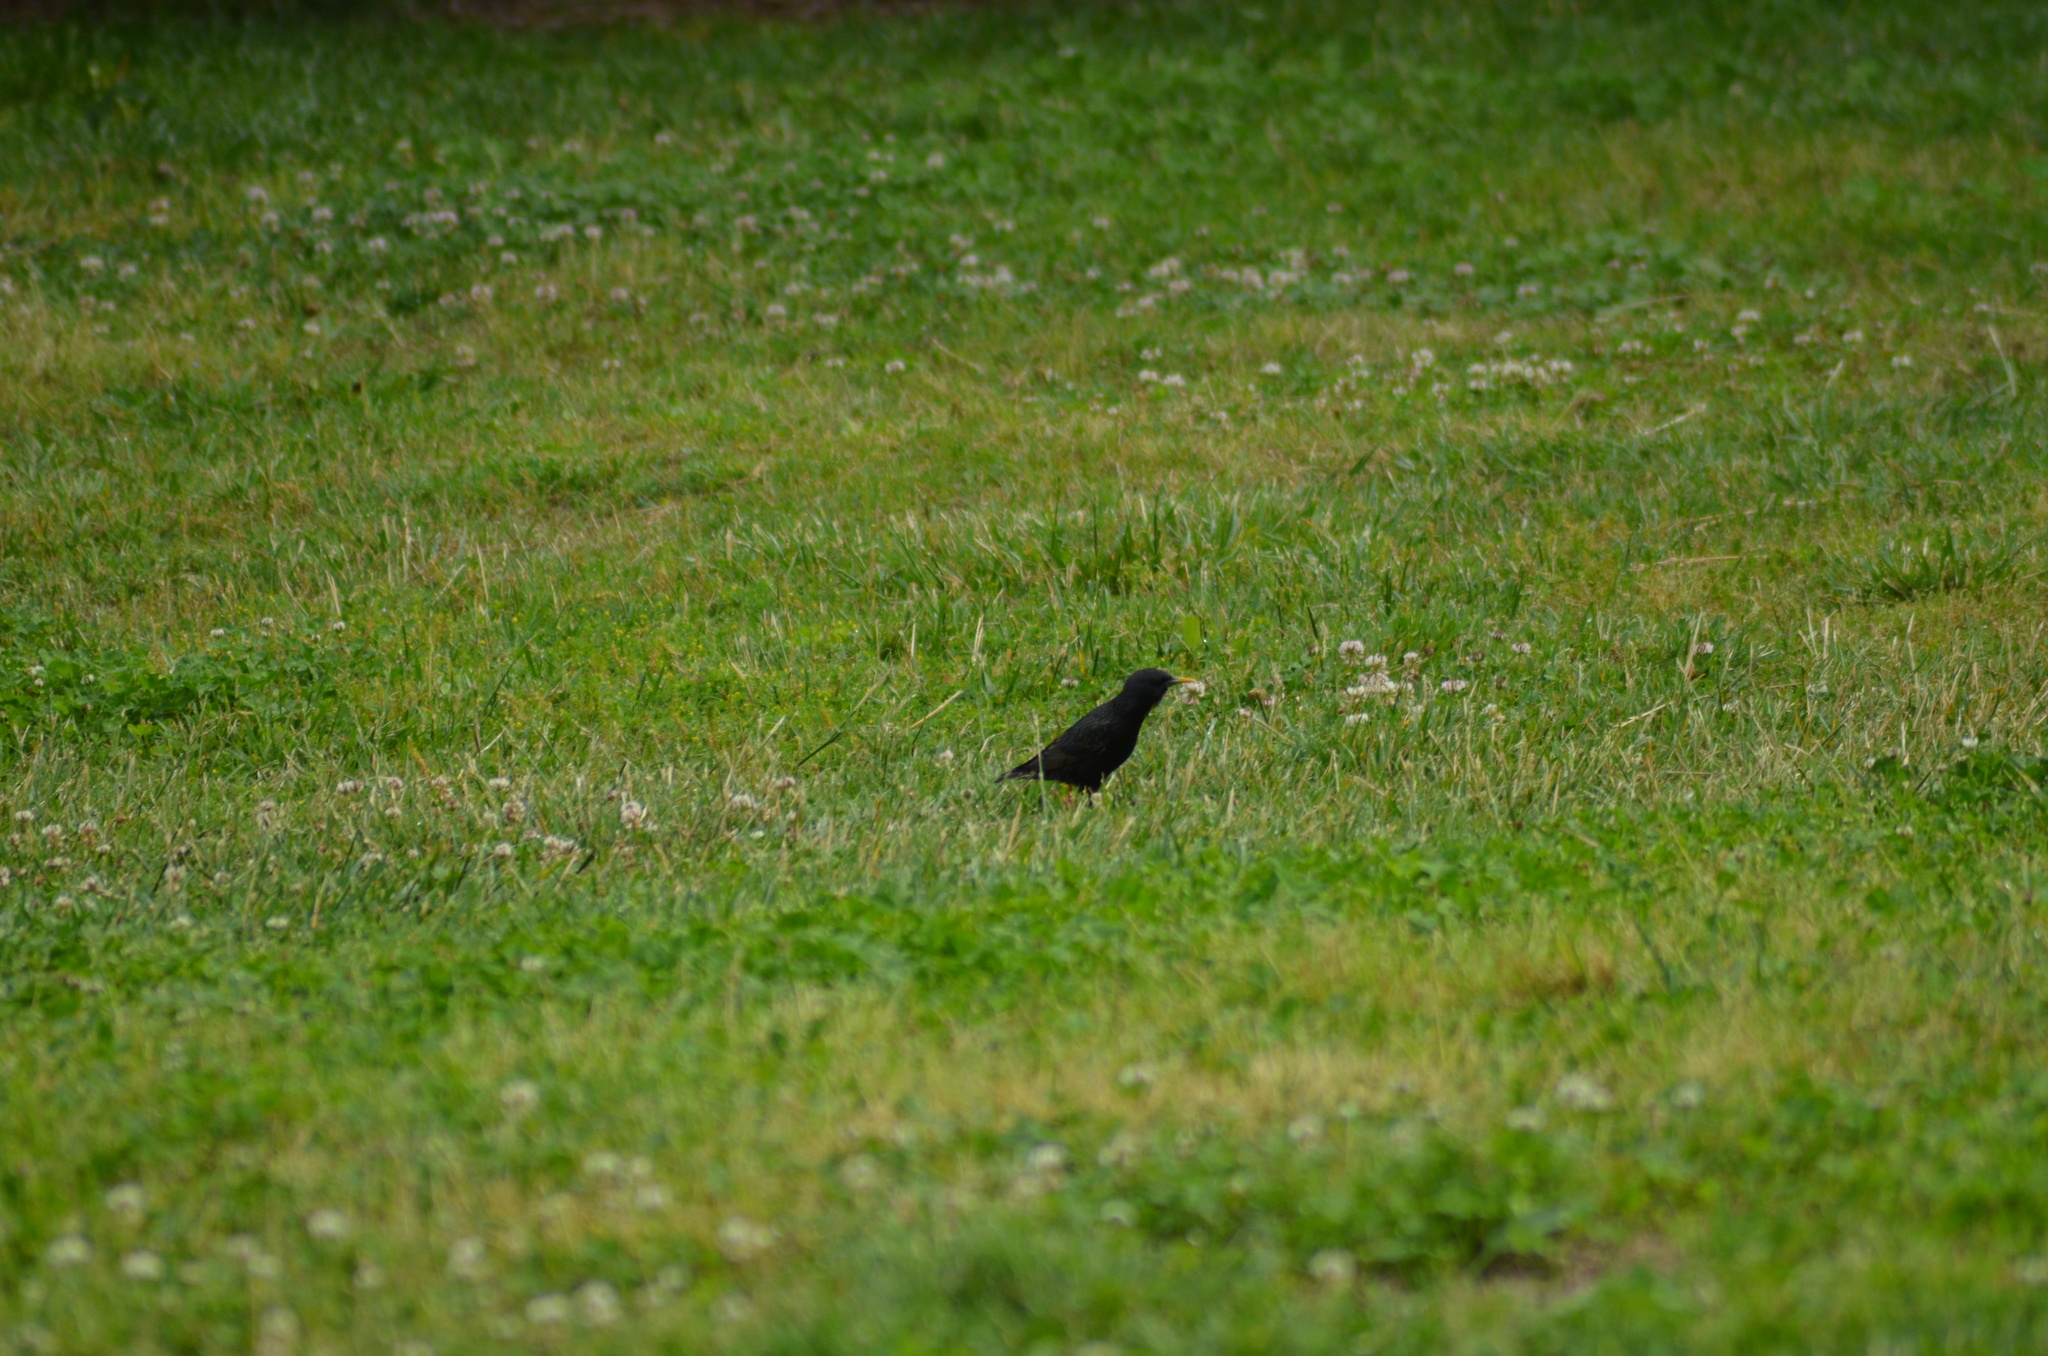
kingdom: Animalia
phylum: Chordata
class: Aves
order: Passeriformes
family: Sturnidae
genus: Sturnus
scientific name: Sturnus vulgaris
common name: Common starling
